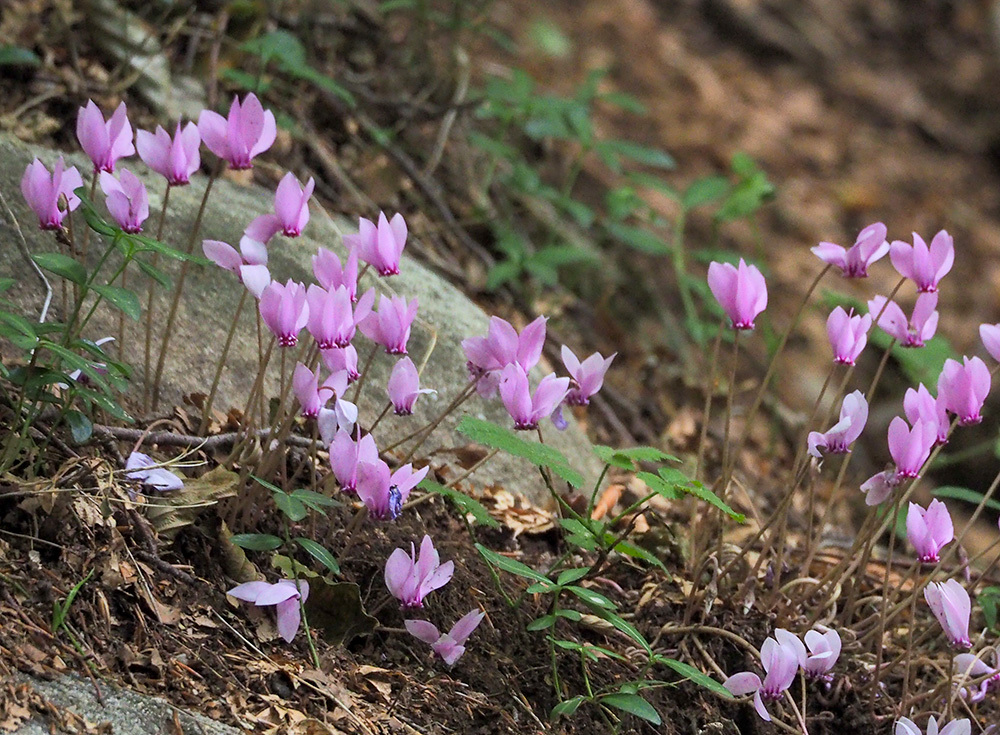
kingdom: Plantae
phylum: Tracheophyta
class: Magnoliopsida
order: Ericales
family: Primulaceae
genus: Cyclamen
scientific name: Cyclamen hederifolium
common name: Sowbread
